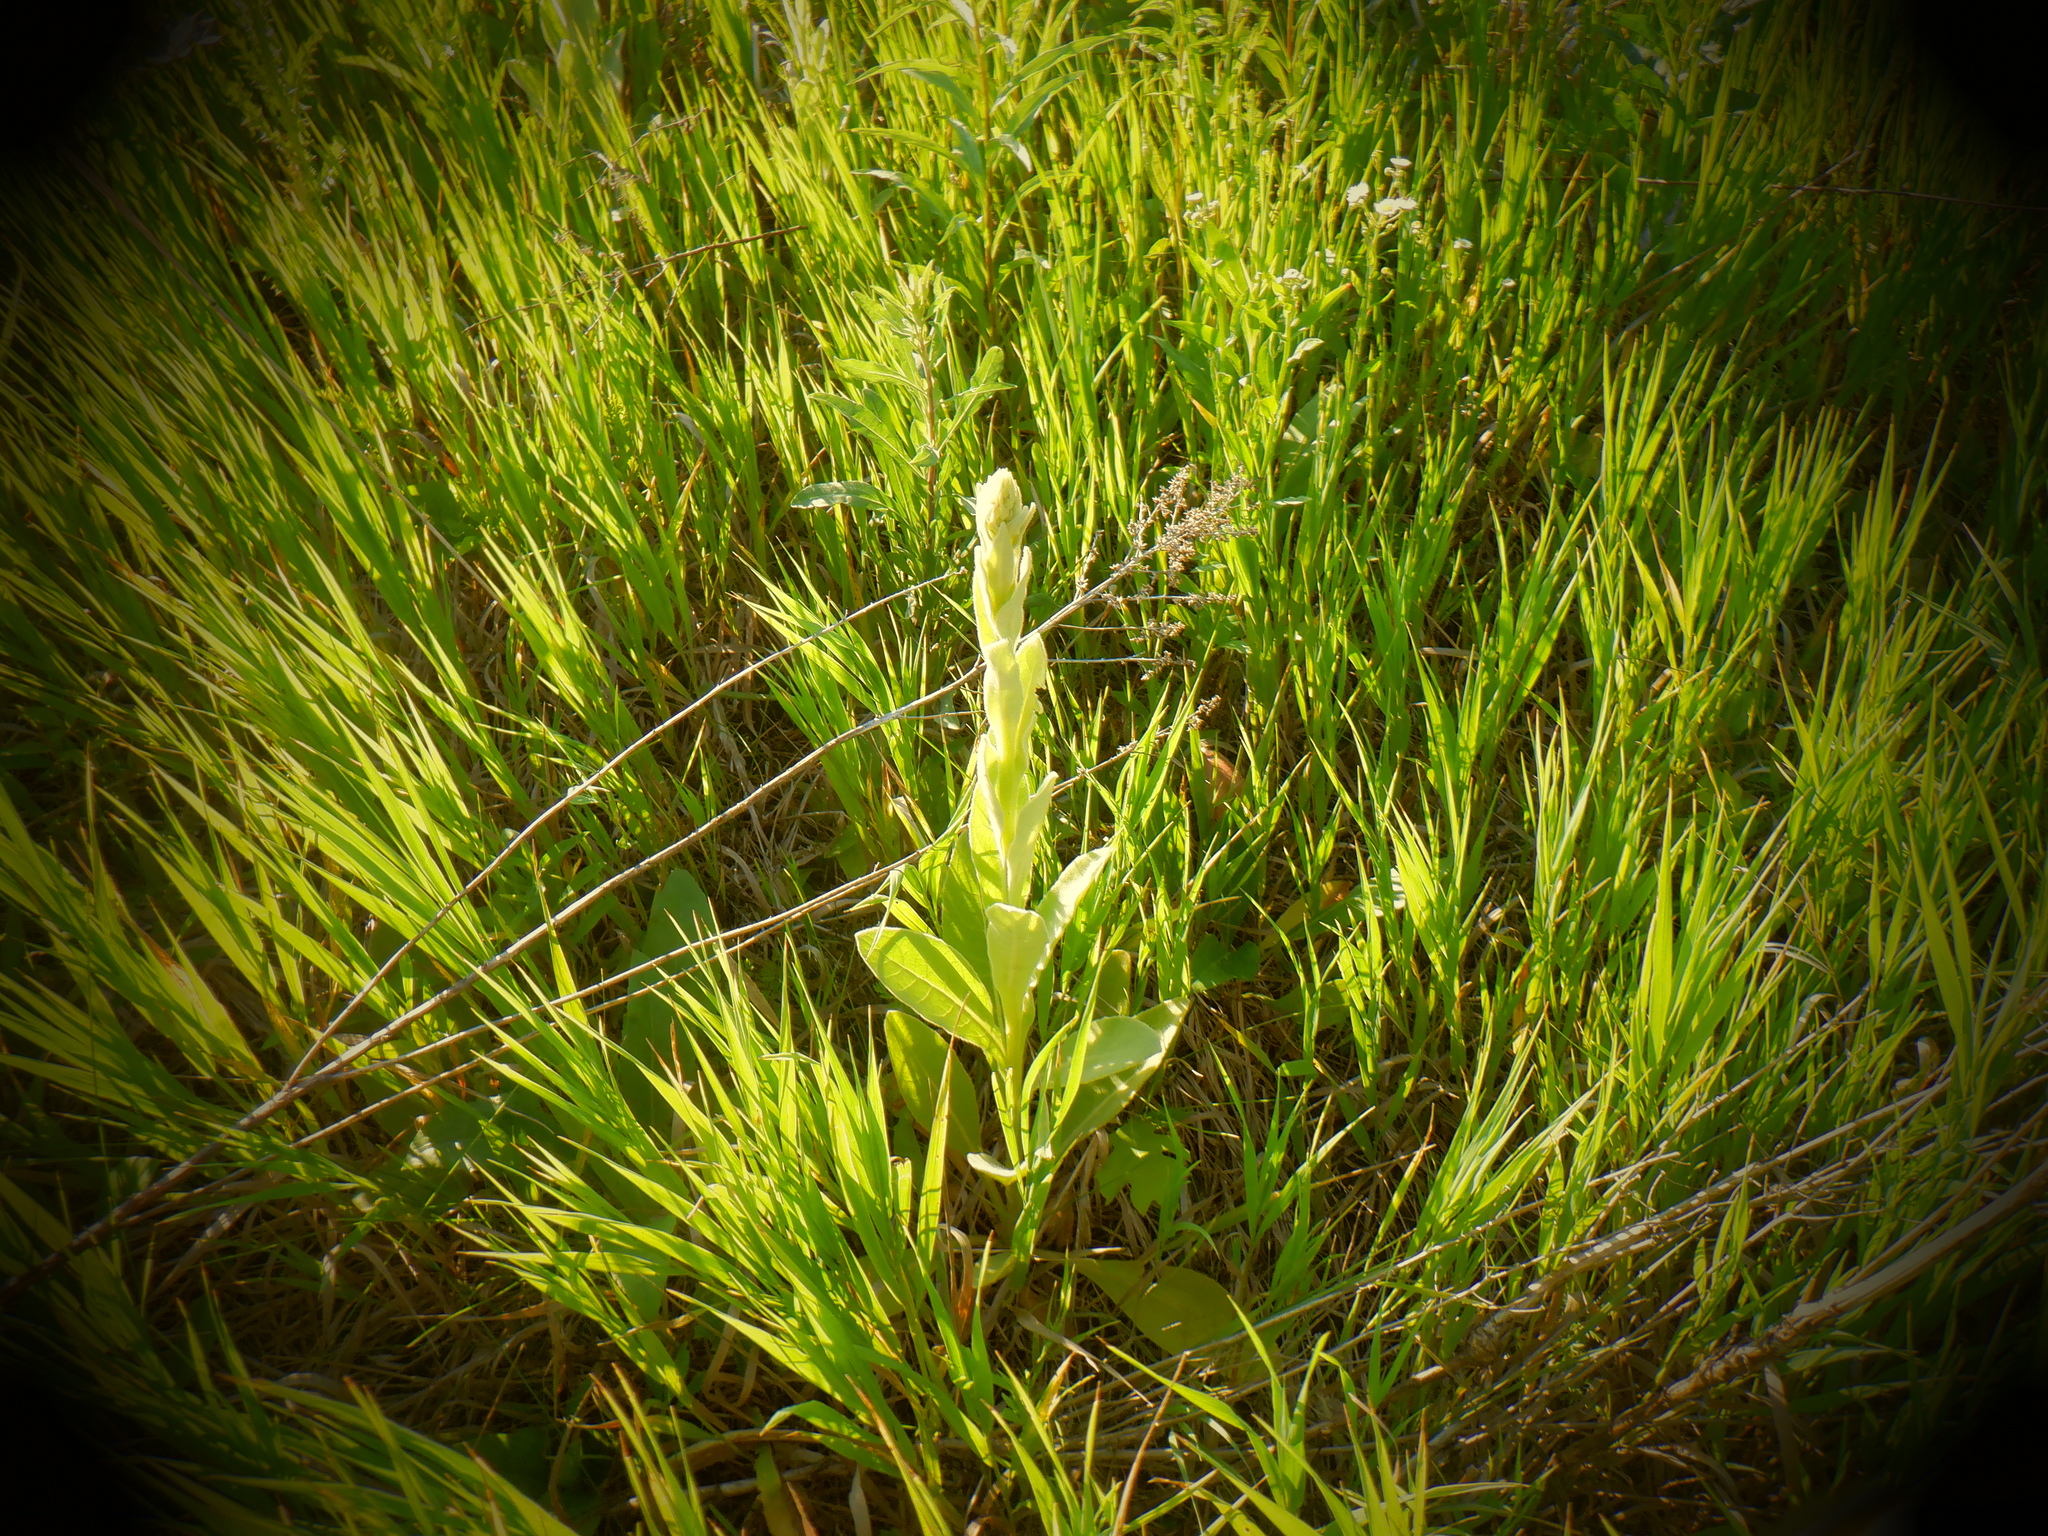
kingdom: Plantae
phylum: Tracheophyta
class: Magnoliopsida
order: Lamiales
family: Scrophulariaceae
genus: Verbascum
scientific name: Verbascum thapsus
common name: Common mullein
